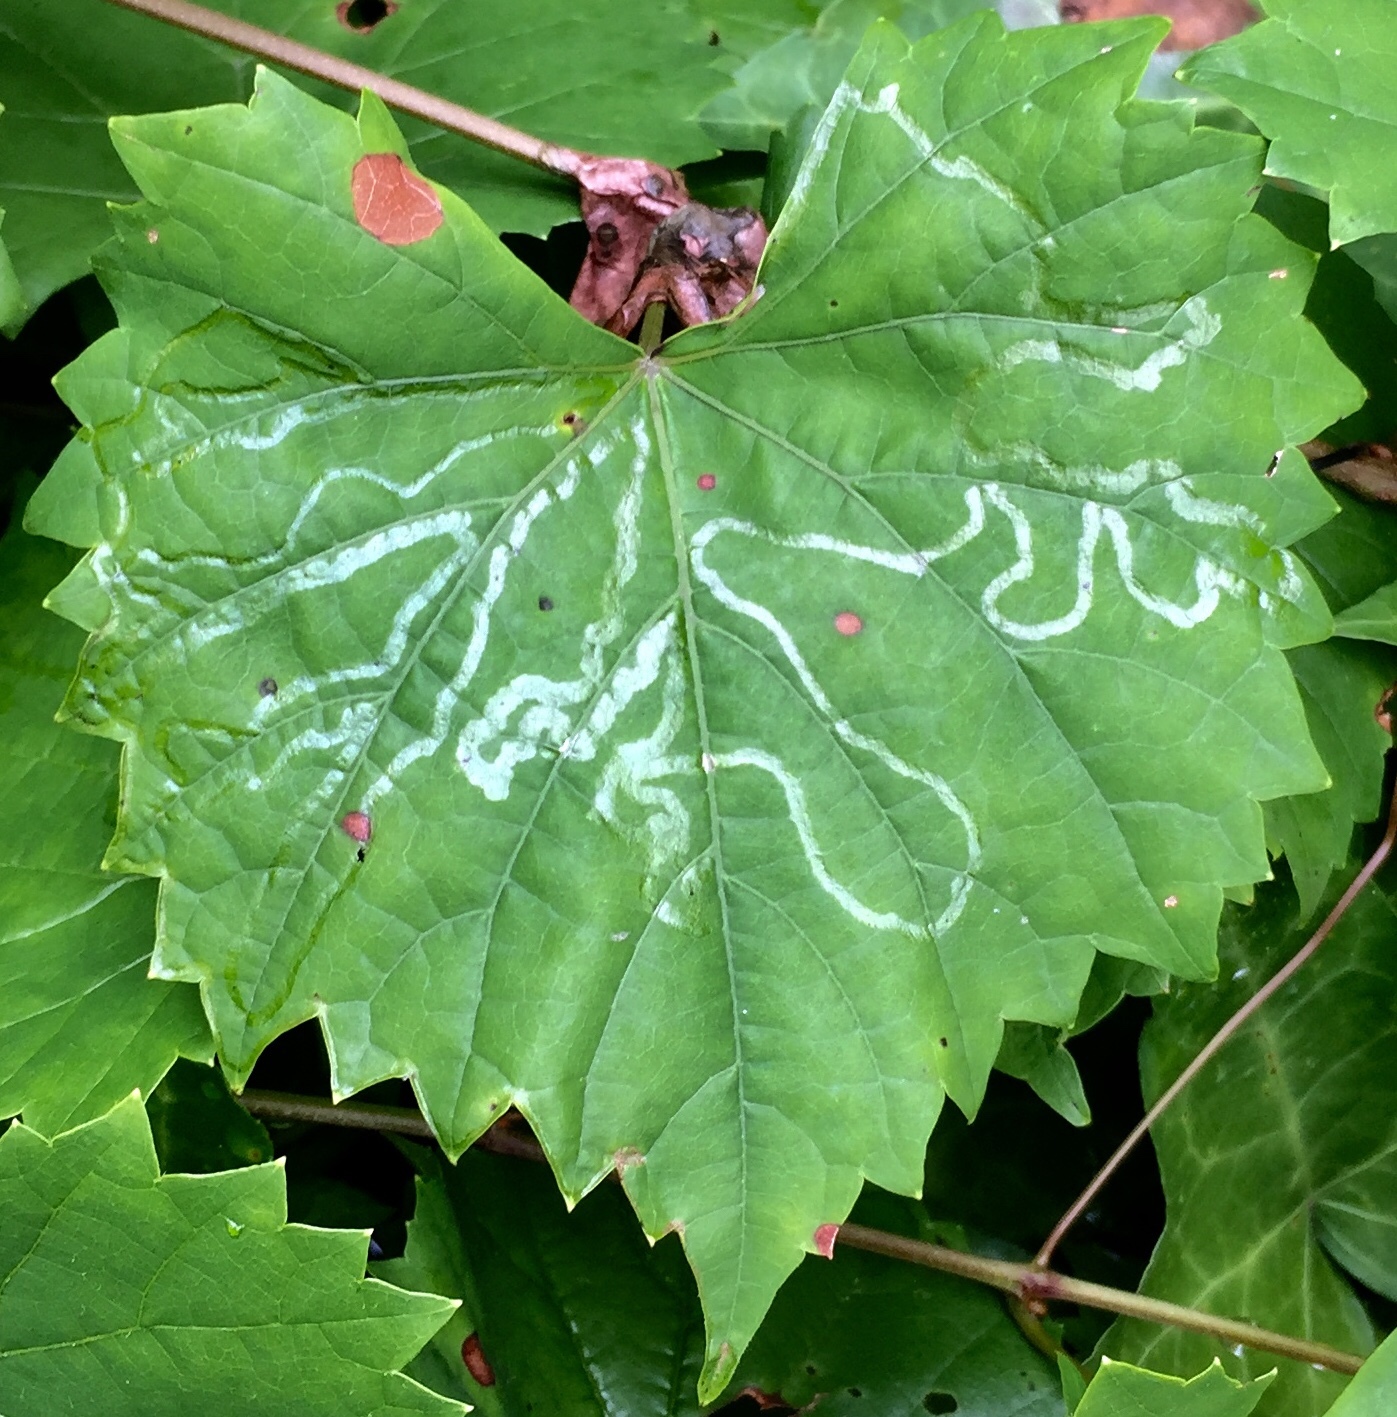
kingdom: Animalia
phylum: Arthropoda
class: Insecta
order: Lepidoptera
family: Gracillariidae
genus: Phyllocnistis
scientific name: Phyllocnistis vitegenella
